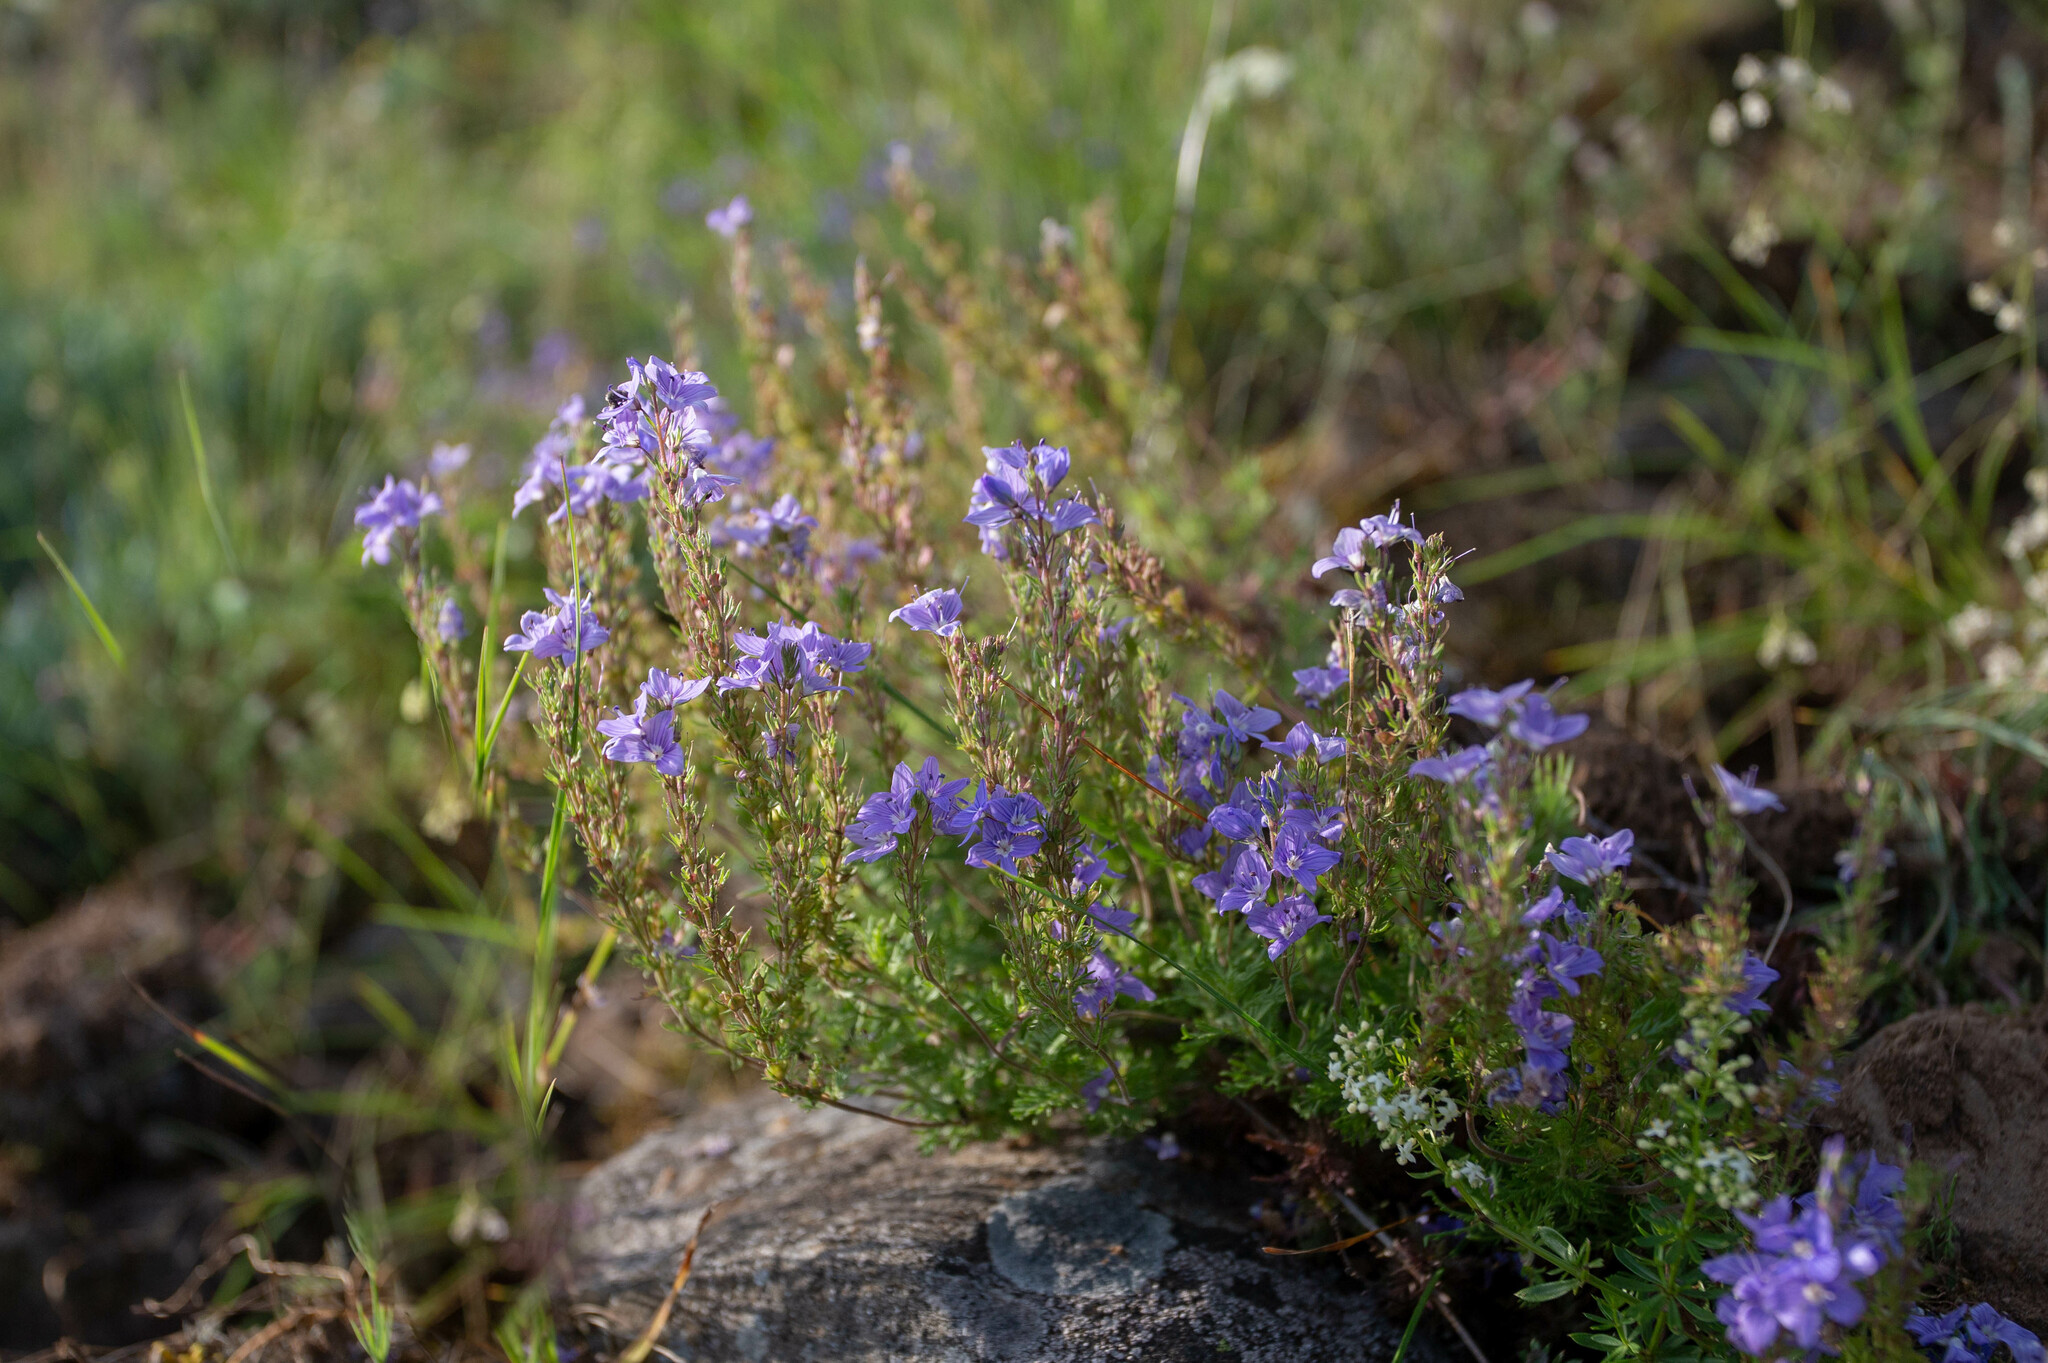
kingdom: Plantae
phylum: Tracheophyta
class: Magnoliopsida
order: Lamiales
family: Plantaginaceae
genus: Veronica
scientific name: Veronica capsellicarpa
